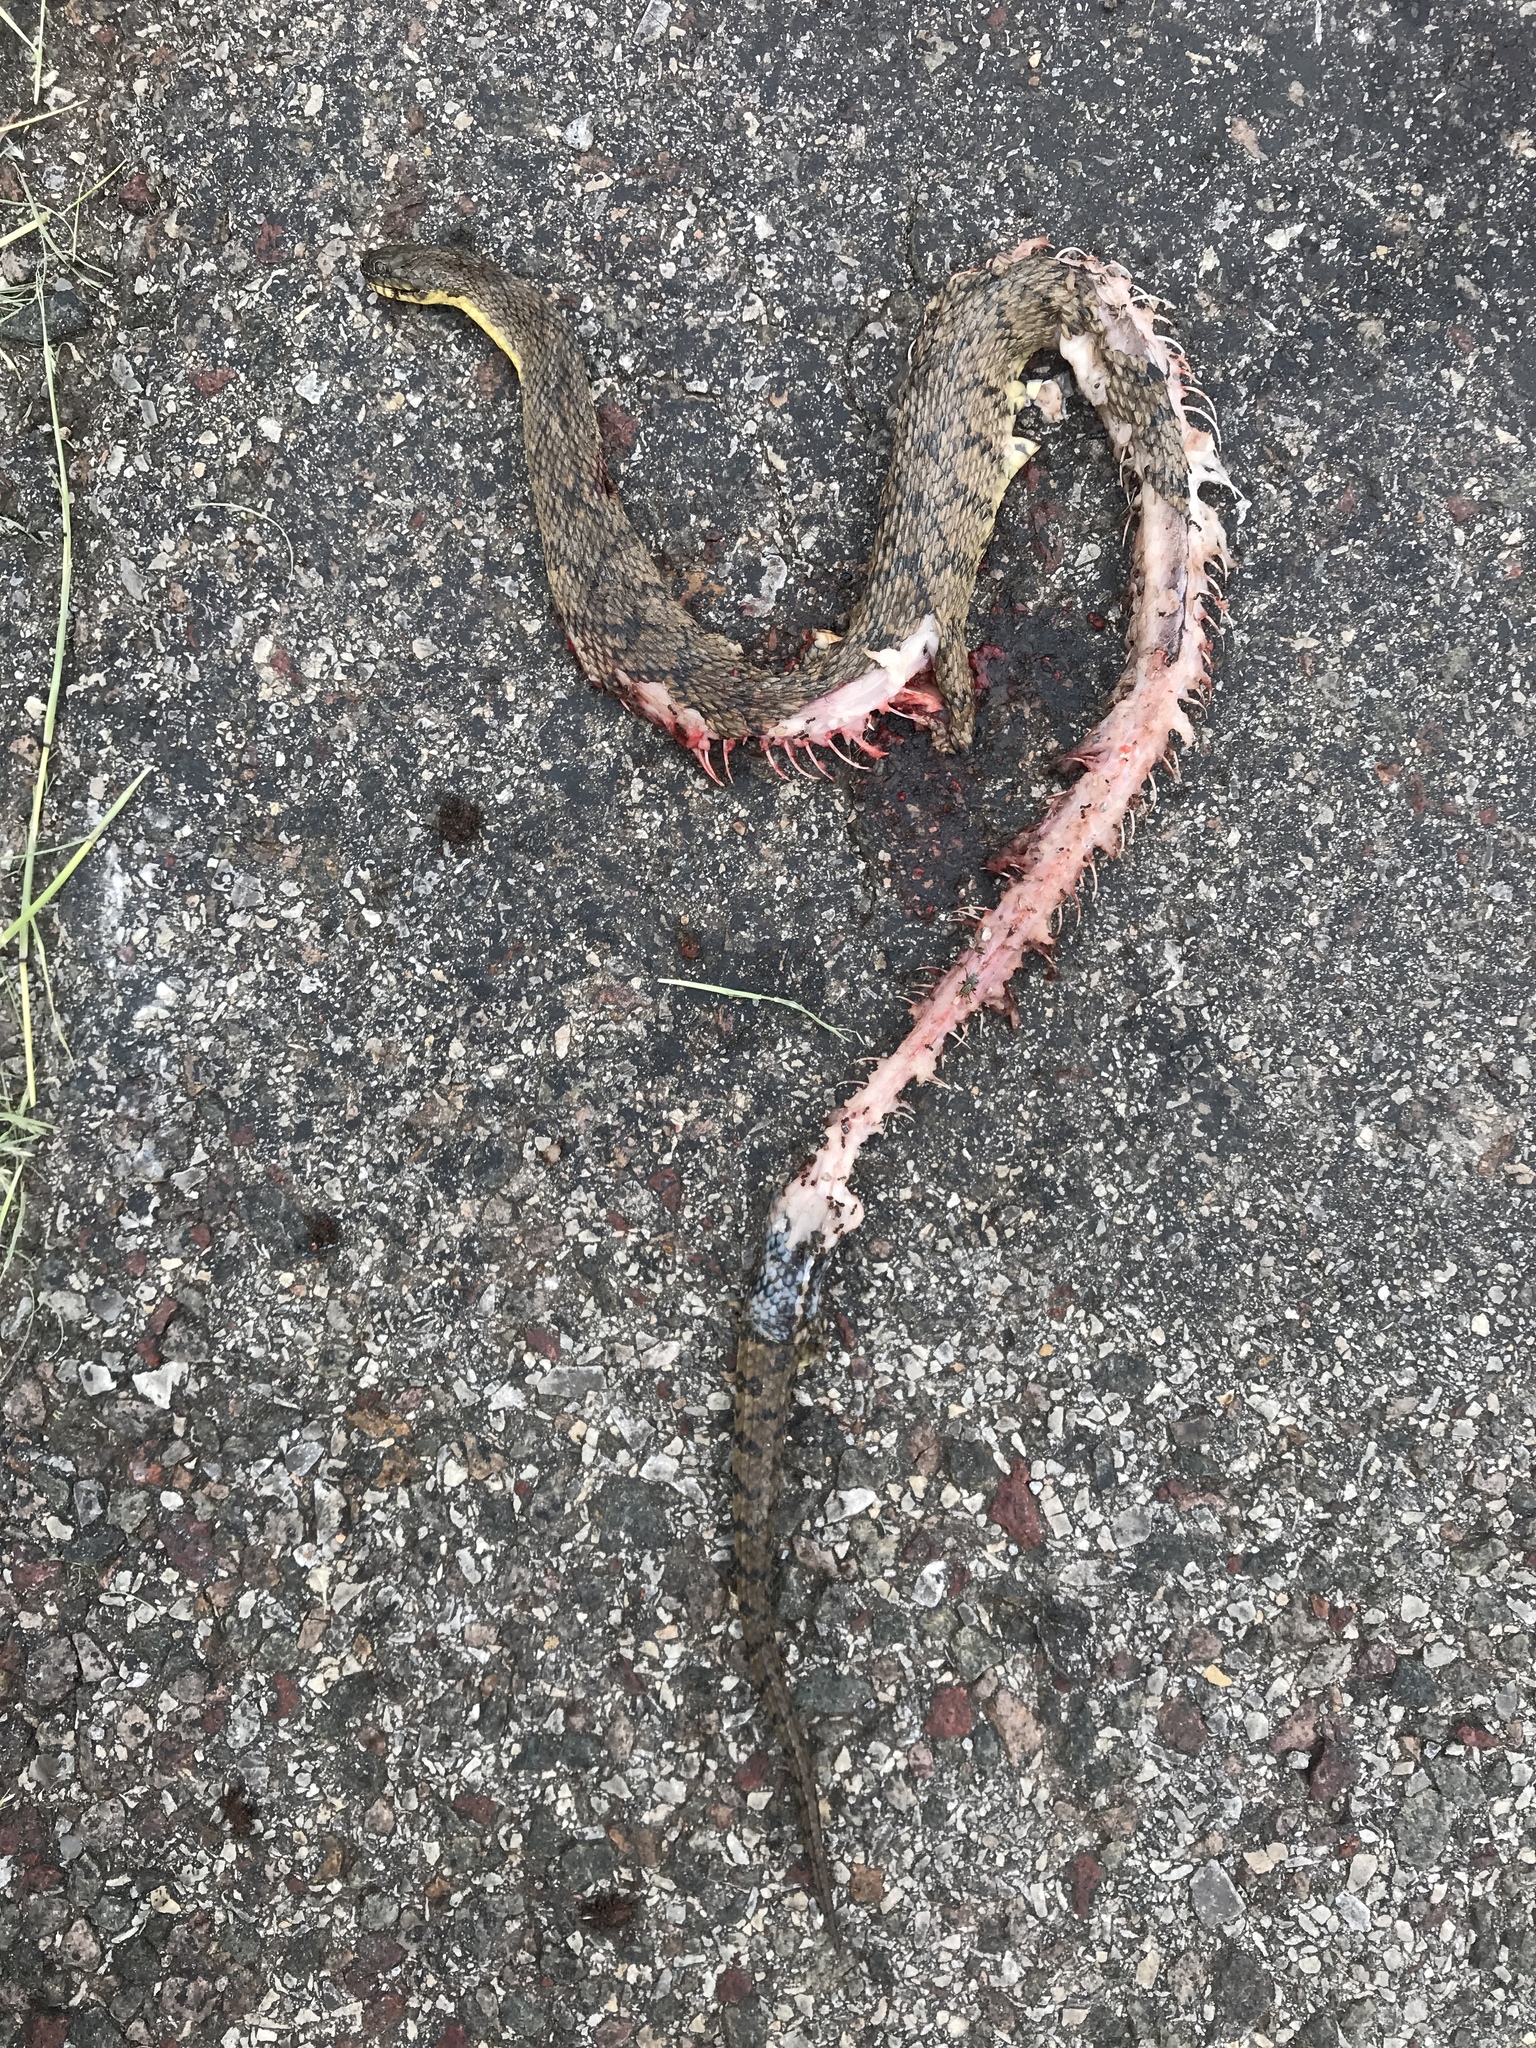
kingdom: Animalia
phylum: Chordata
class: Squamata
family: Colubridae
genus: Nerodia
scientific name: Nerodia rhombifer
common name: Diamondback water snake
